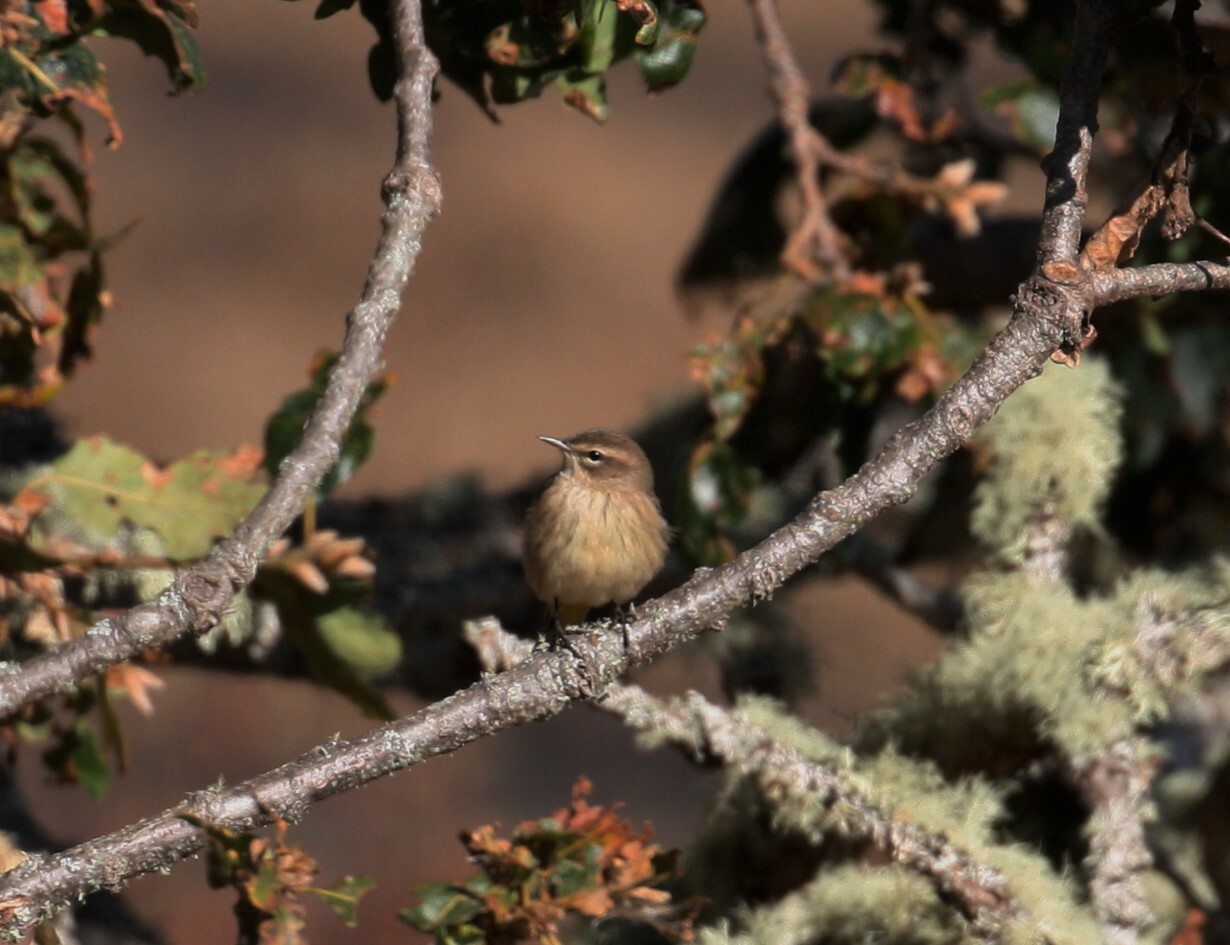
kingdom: Animalia
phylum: Chordata
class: Aves
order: Passeriformes
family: Parulidae
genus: Setophaga
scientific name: Setophaga palmarum
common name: Palm warbler
